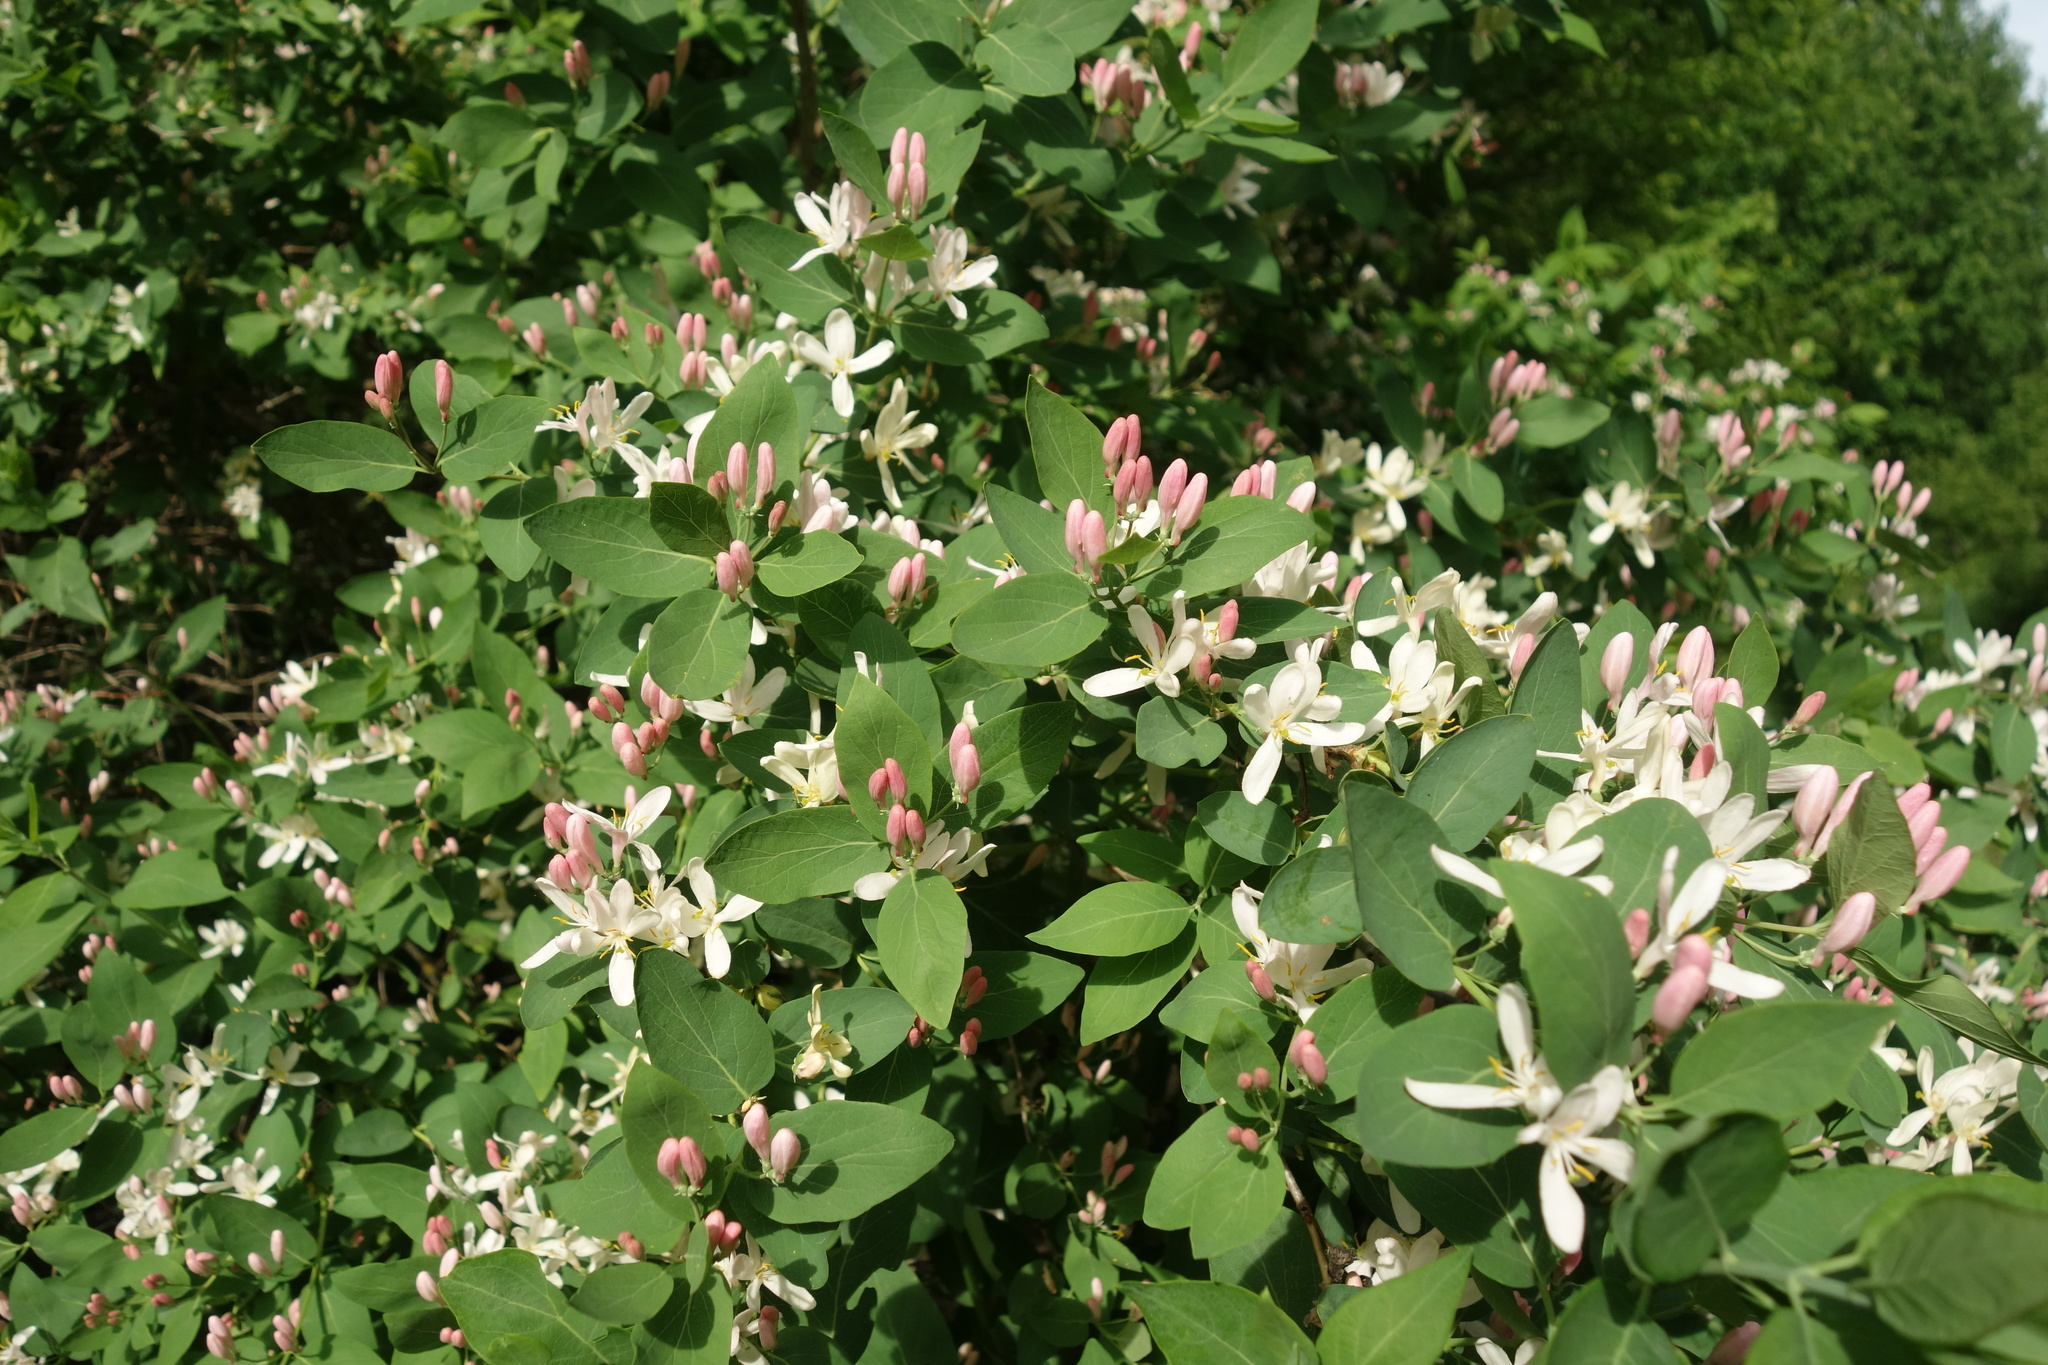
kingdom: Plantae
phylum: Tracheophyta
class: Magnoliopsida
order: Dipsacales
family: Caprifoliaceae
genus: Lonicera
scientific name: Lonicera tatarica
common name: Tatarian honeysuckle
